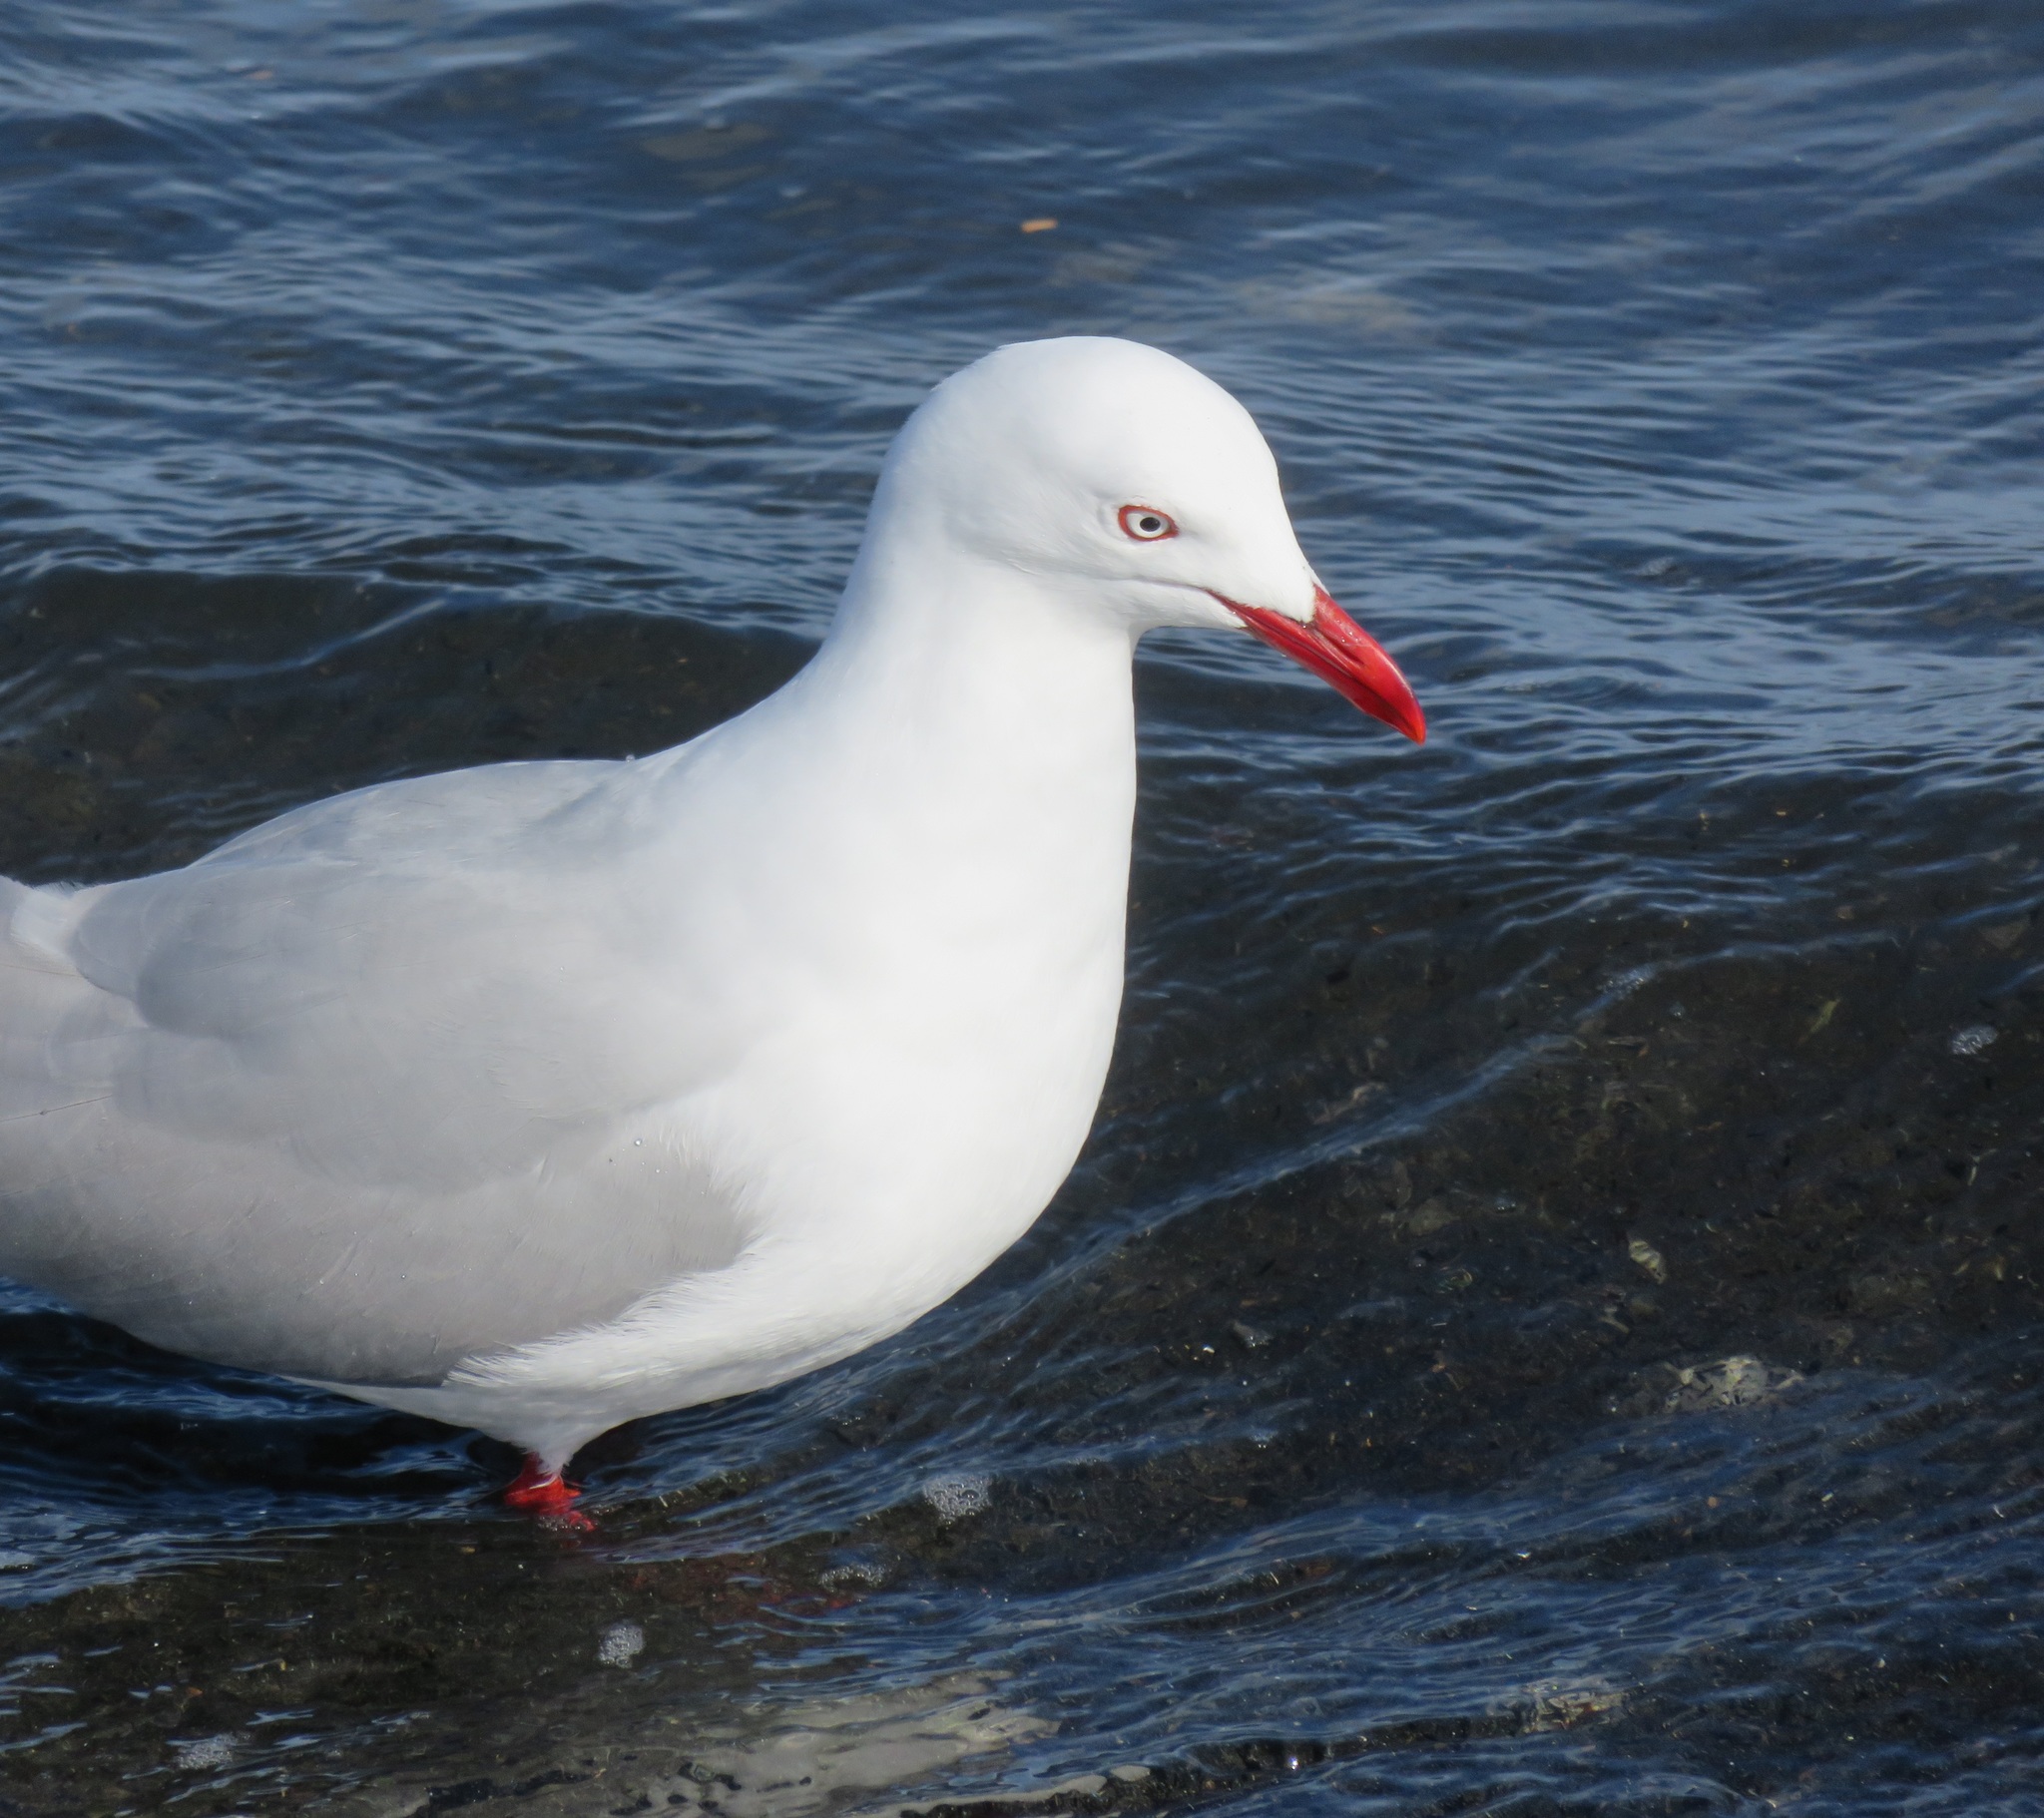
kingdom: Animalia
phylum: Chordata
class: Aves
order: Charadriiformes
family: Laridae
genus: Chroicocephalus
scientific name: Chroicocephalus novaehollandiae
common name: Silver gull
